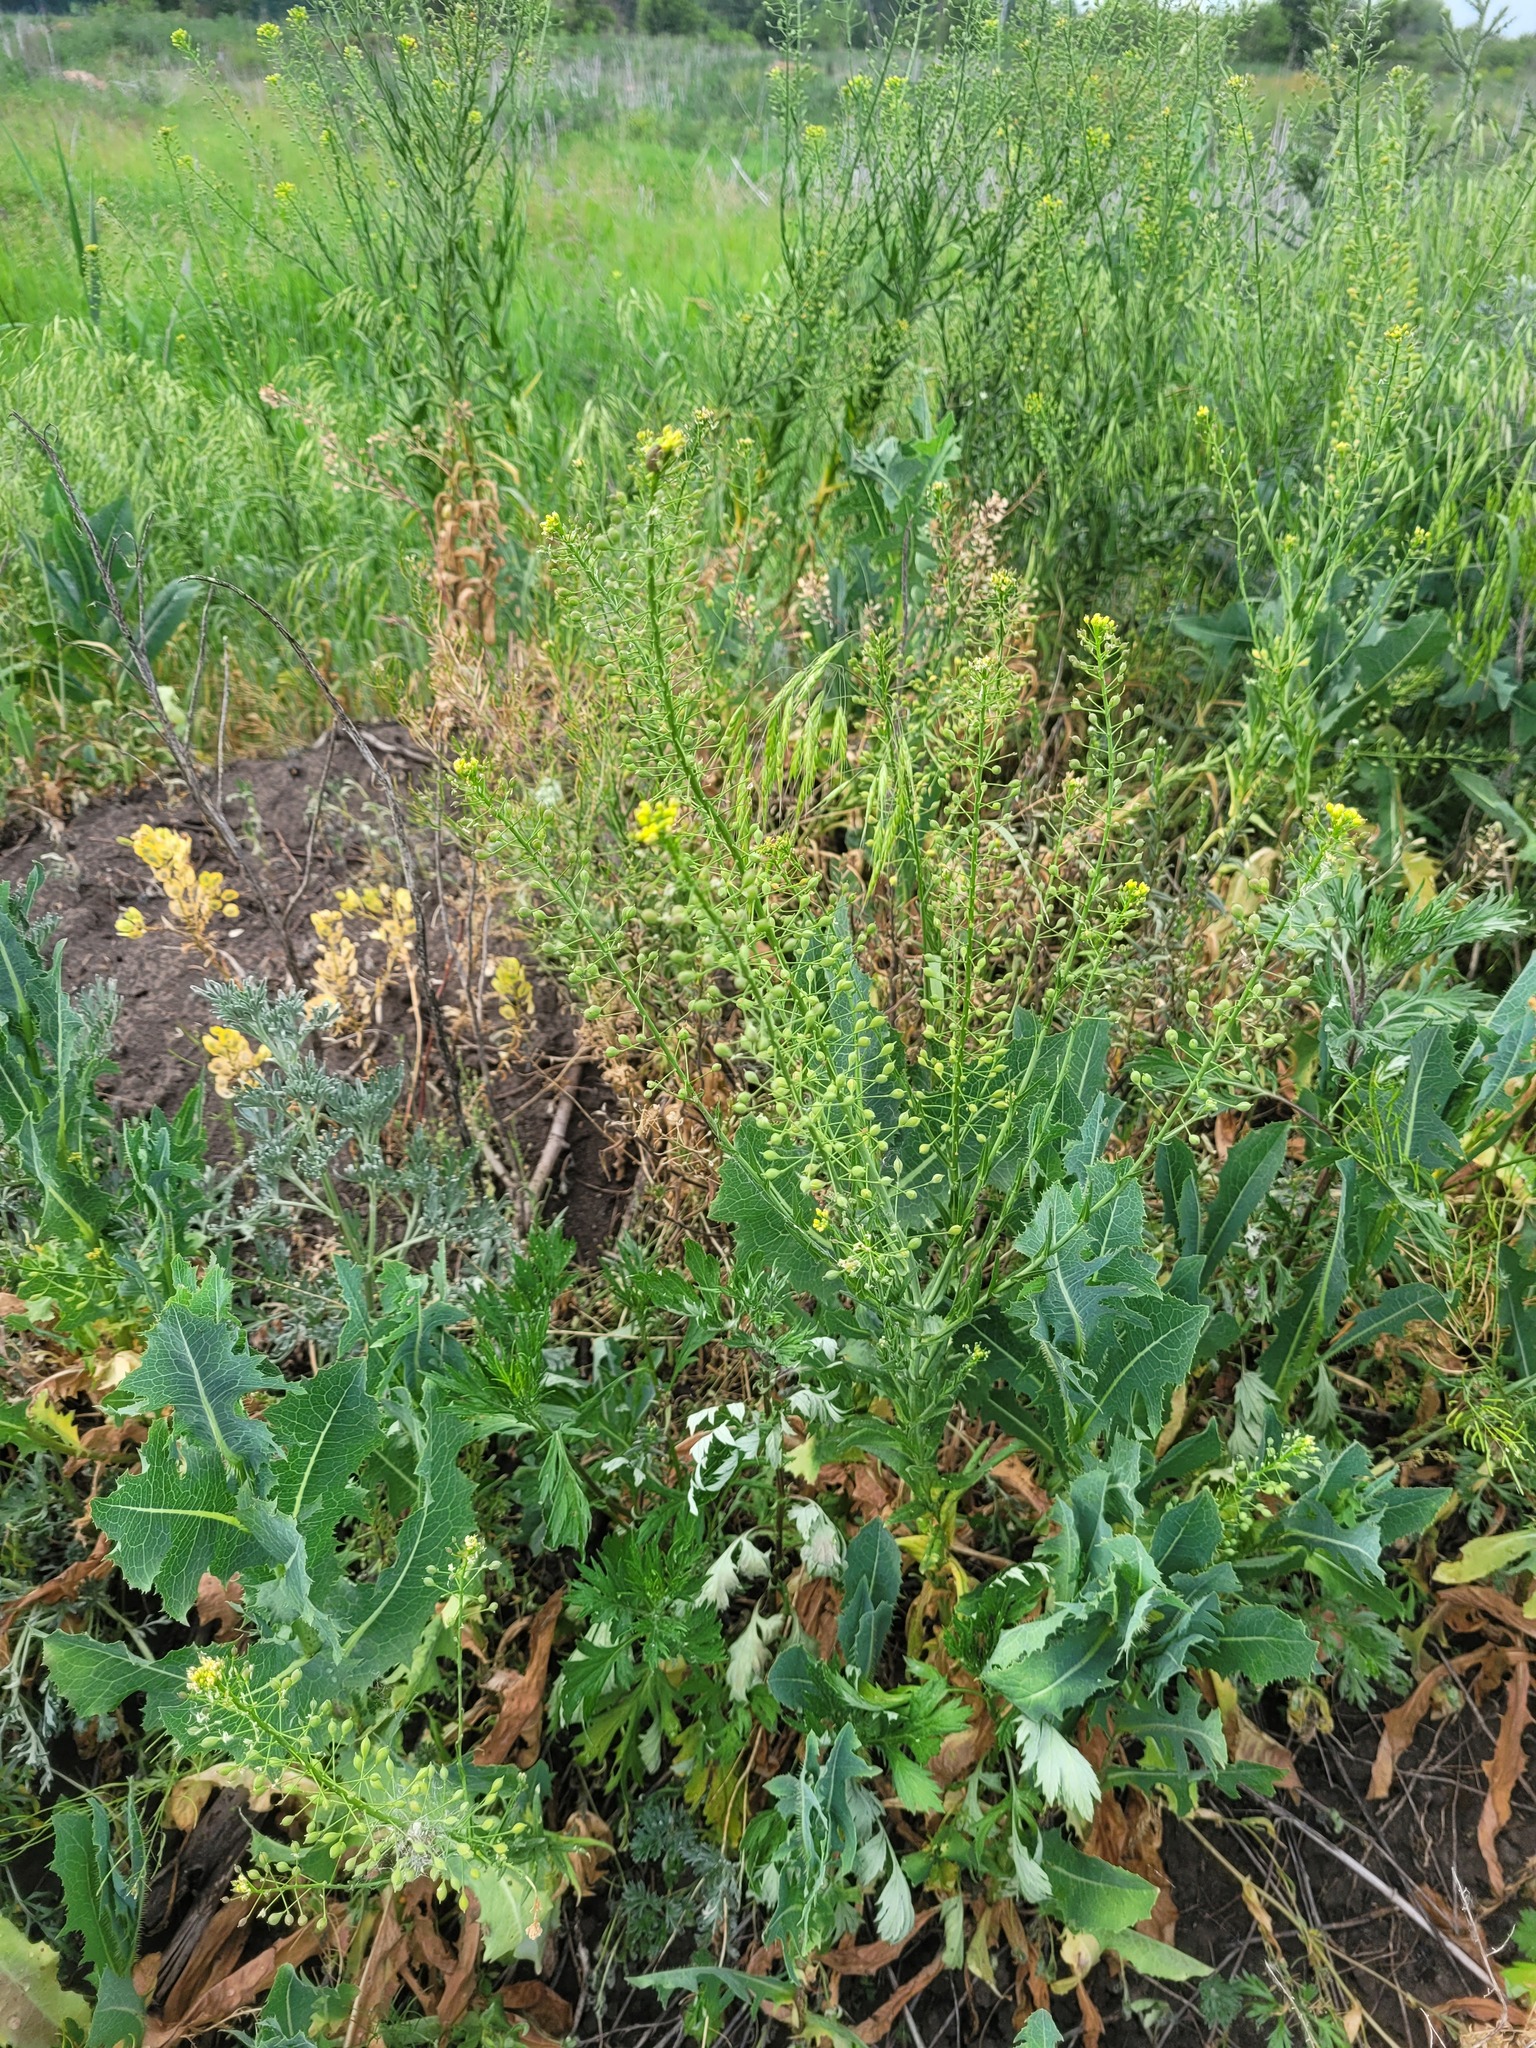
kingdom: Plantae
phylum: Tracheophyta
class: Magnoliopsida
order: Brassicales
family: Brassicaceae
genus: Camelina
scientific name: Camelina microcarpa
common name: Lesser gold-of-pleasure
